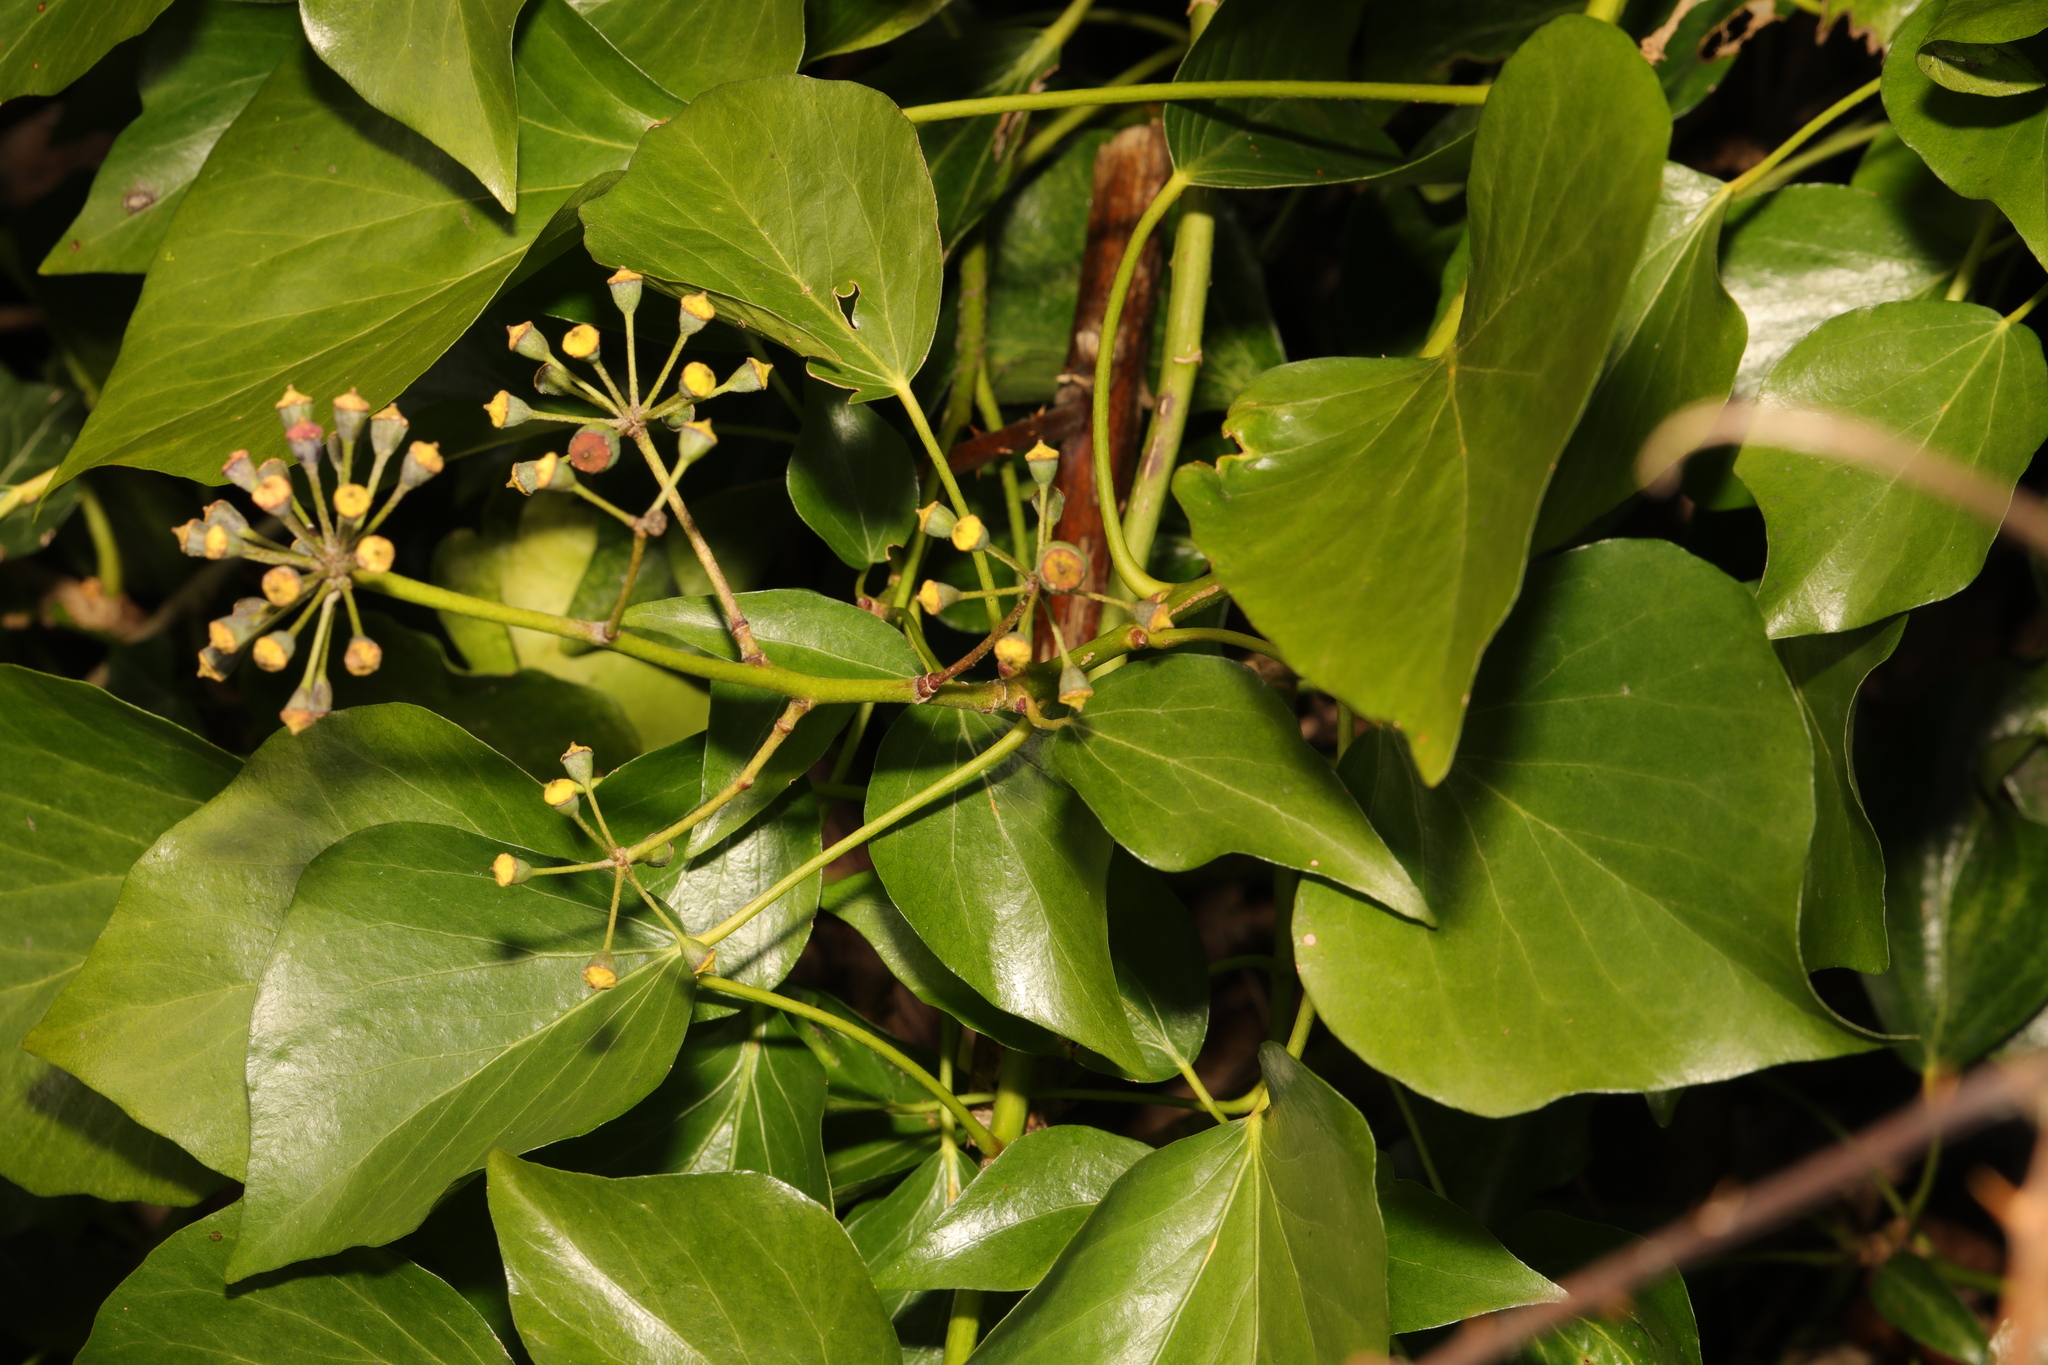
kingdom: Plantae
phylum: Tracheophyta
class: Magnoliopsida
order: Apiales
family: Araliaceae
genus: Hedera
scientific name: Hedera helix
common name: Ivy
